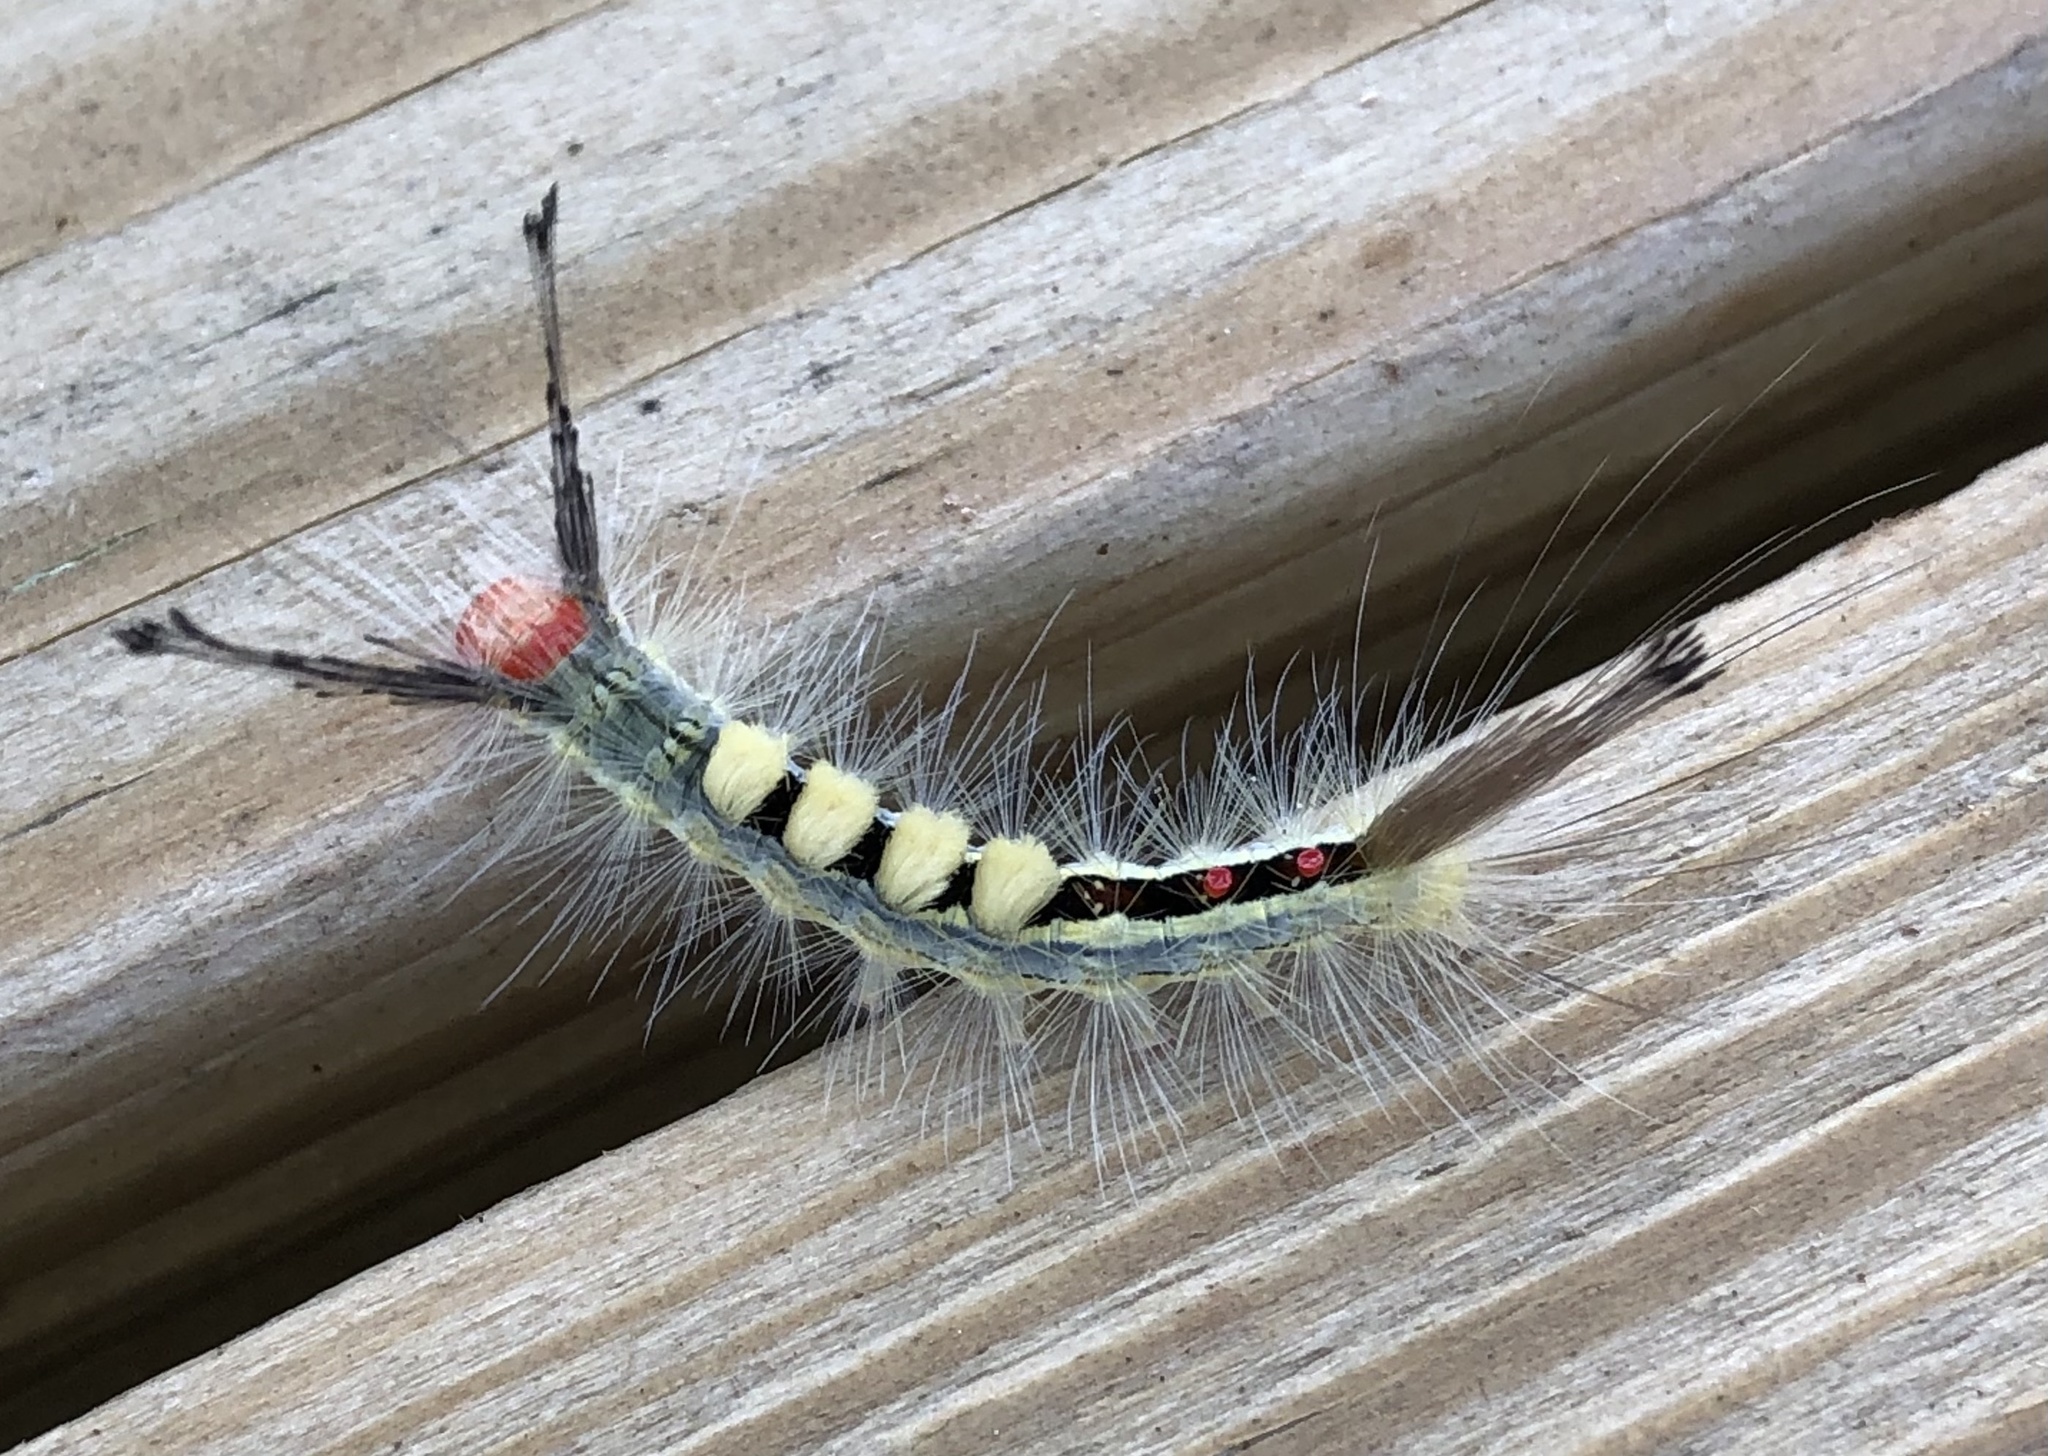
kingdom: Animalia
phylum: Arthropoda
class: Insecta
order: Lepidoptera
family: Erebidae
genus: Orgyia
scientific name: Orgyia leucostigma
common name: White-marked tussock moth
